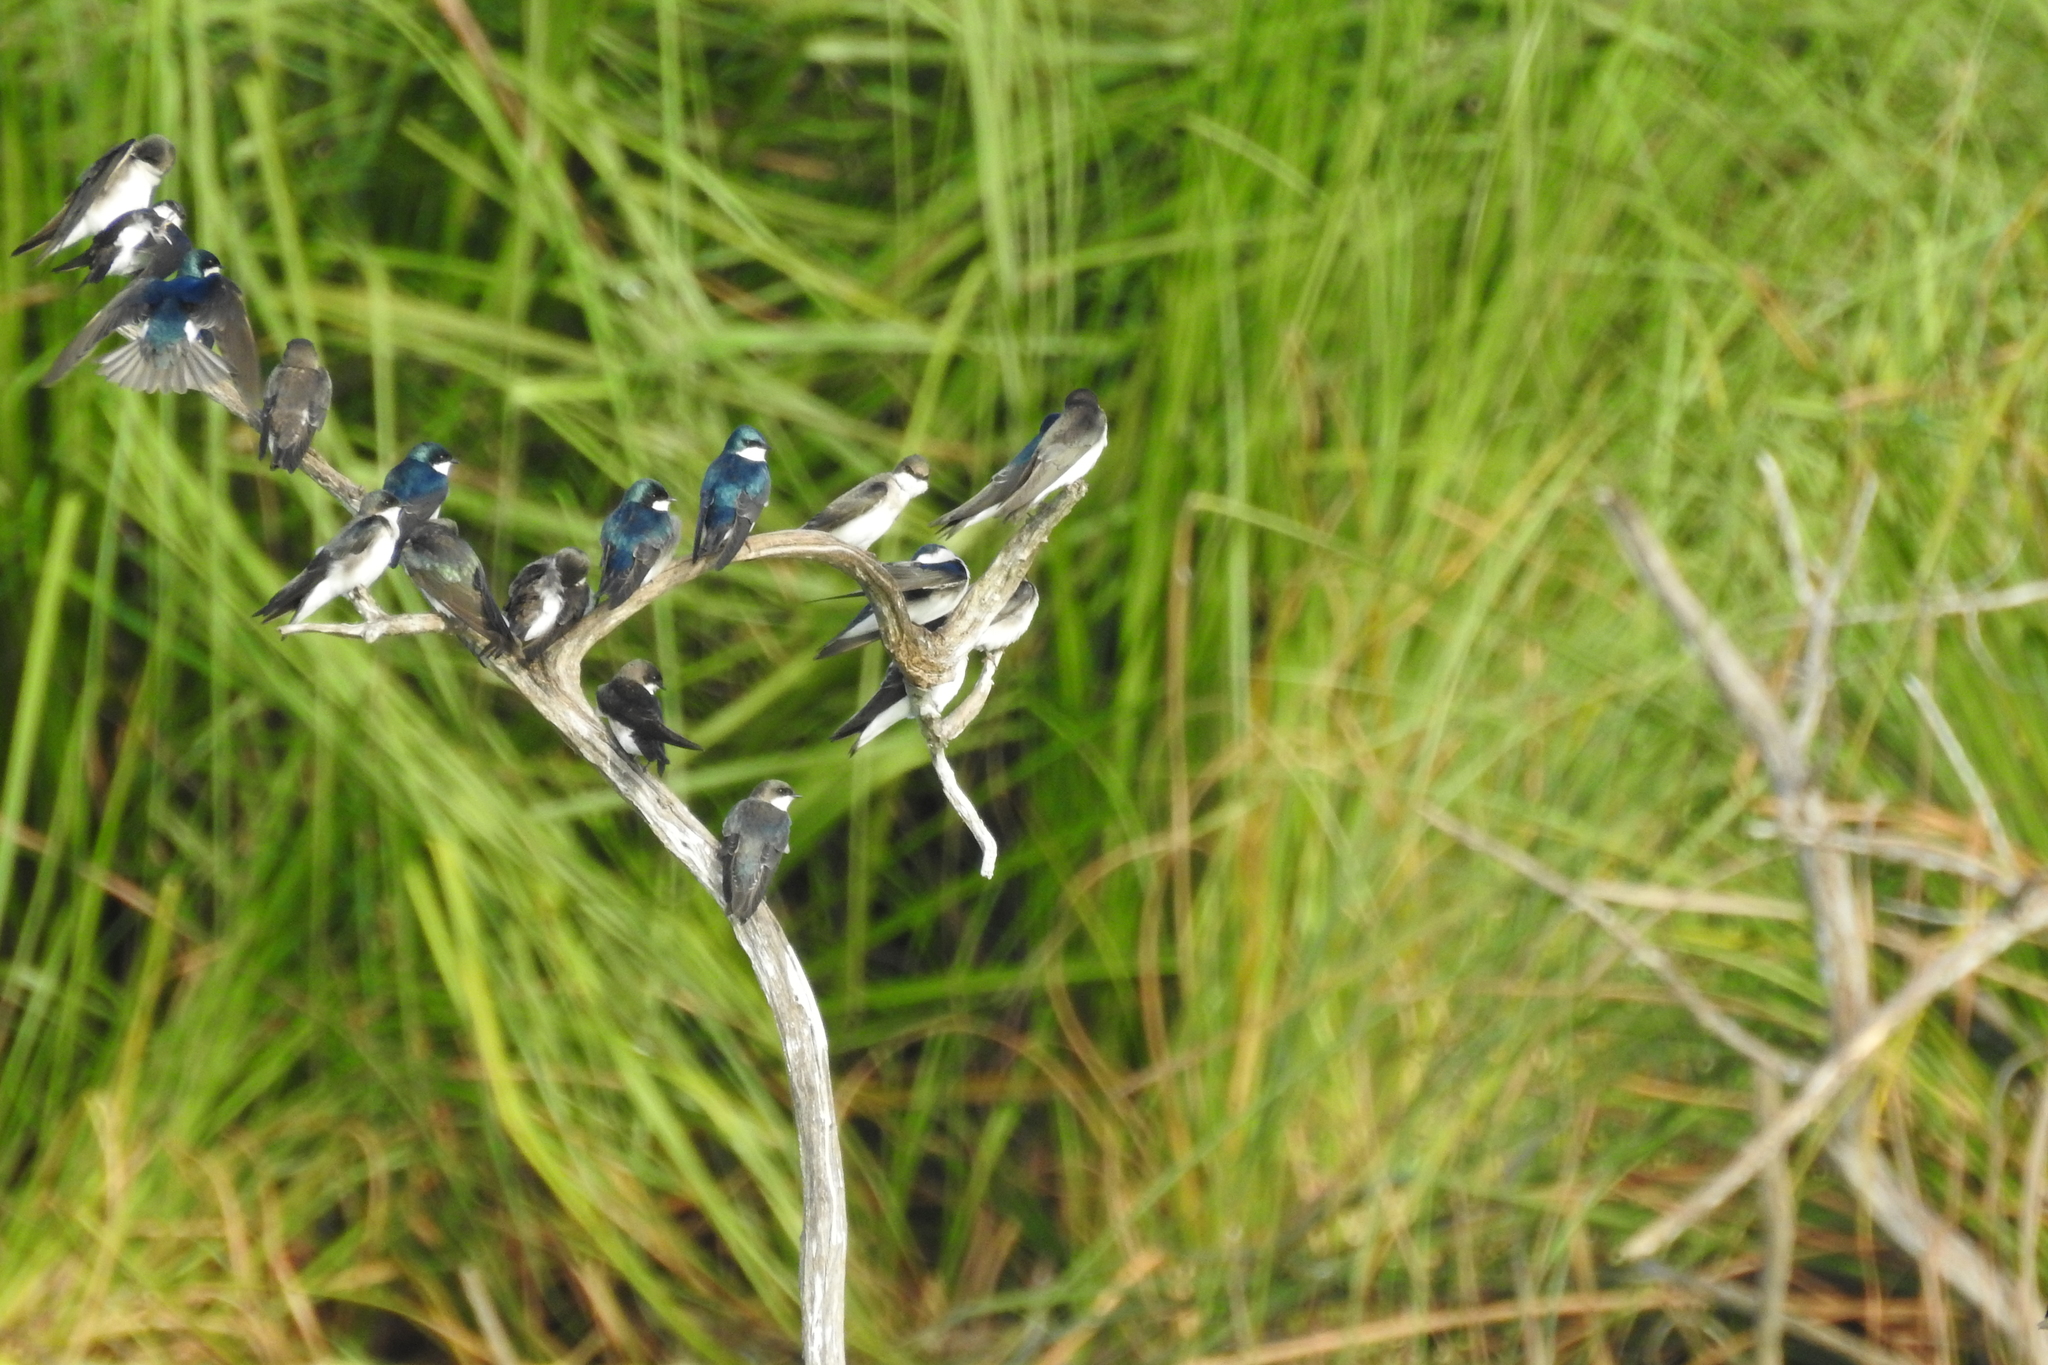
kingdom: Animalia
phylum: Chordata
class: Aves
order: Passeriformes
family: Hirundinidae
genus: Tachycineta
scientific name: Tachycineta albilinea
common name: Mangrove swallow
